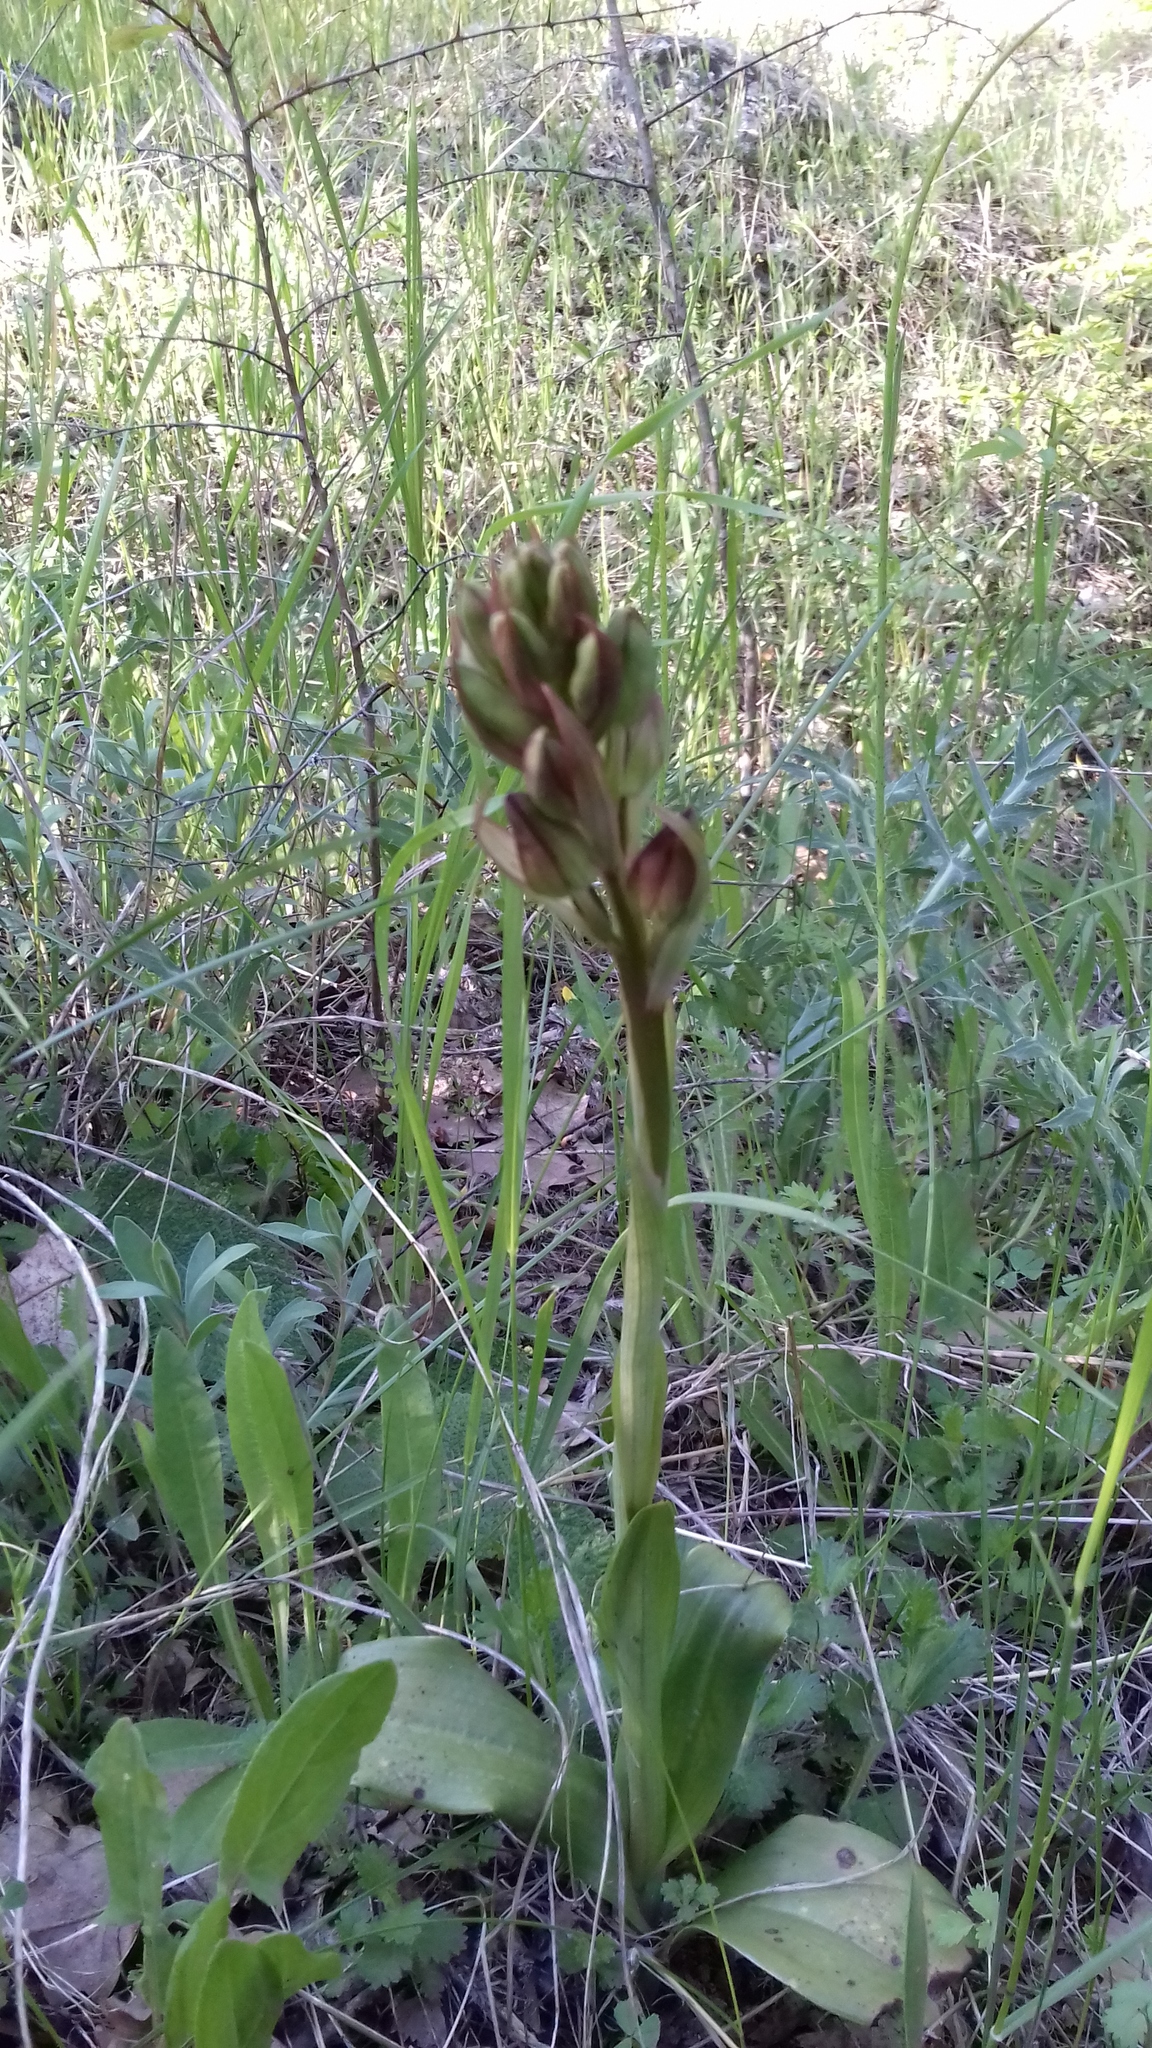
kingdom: Plantae
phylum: Tracheophyta
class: Liliopsida
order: Asparagales
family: Orchidaceae
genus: Himantoglossum
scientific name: Himantoglossum comperianum
